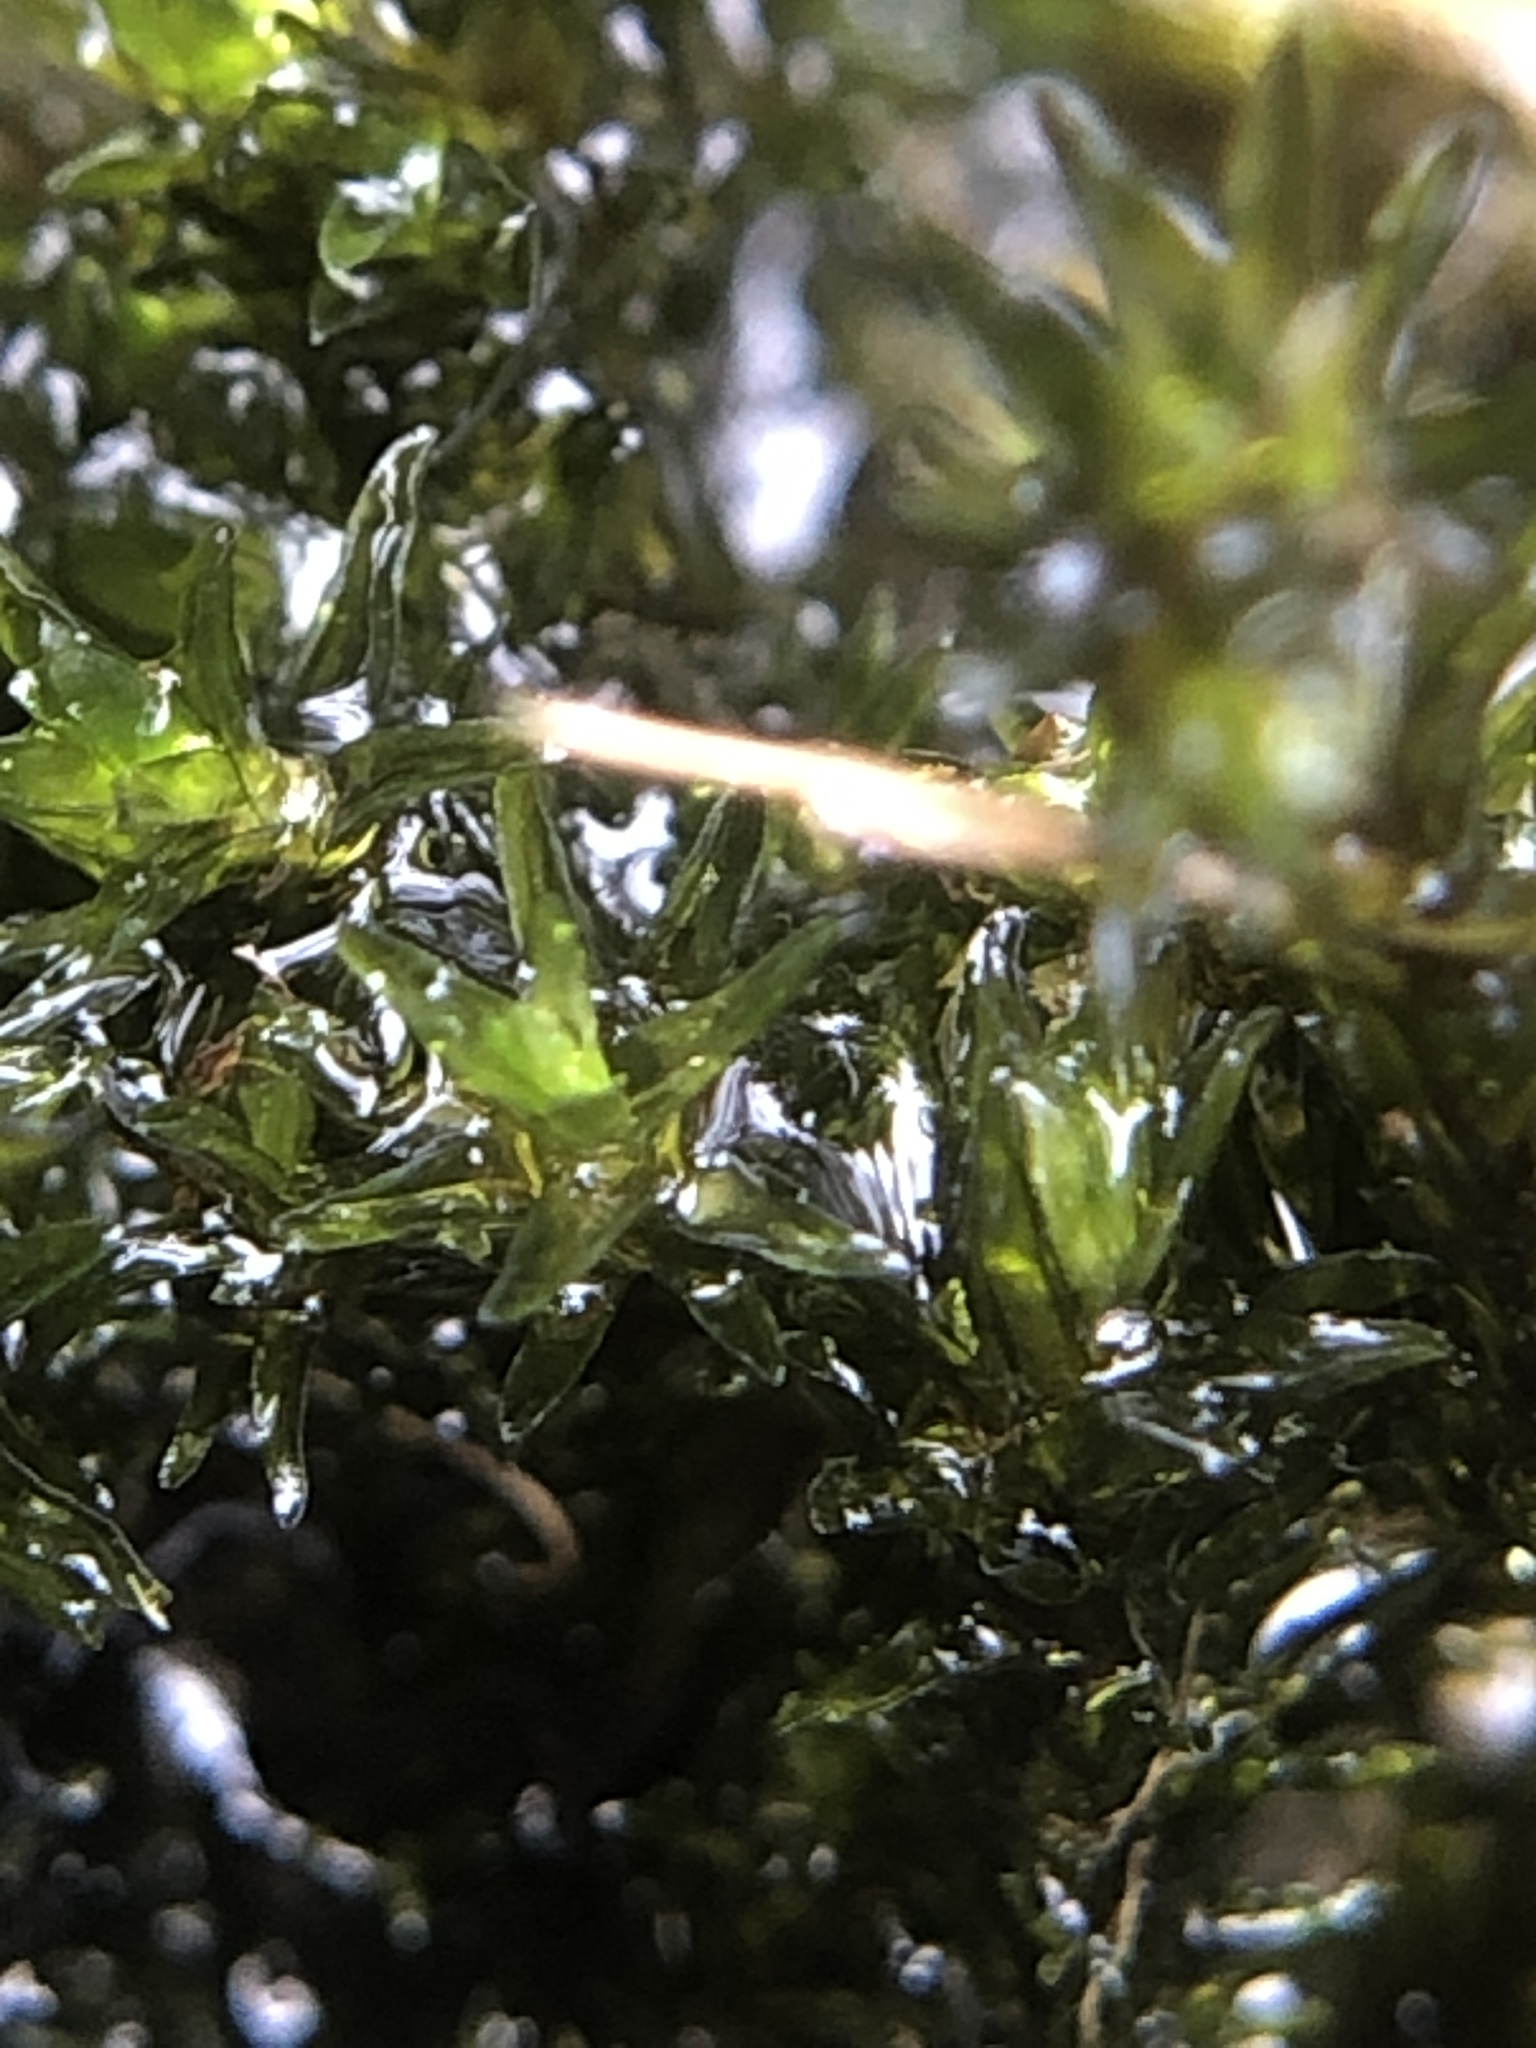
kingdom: Plantae
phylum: Bryophyta
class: Bryopsida
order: Grimmiales
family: Grimmiaceae
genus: Codriophorus
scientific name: Codriophorus acicularis
